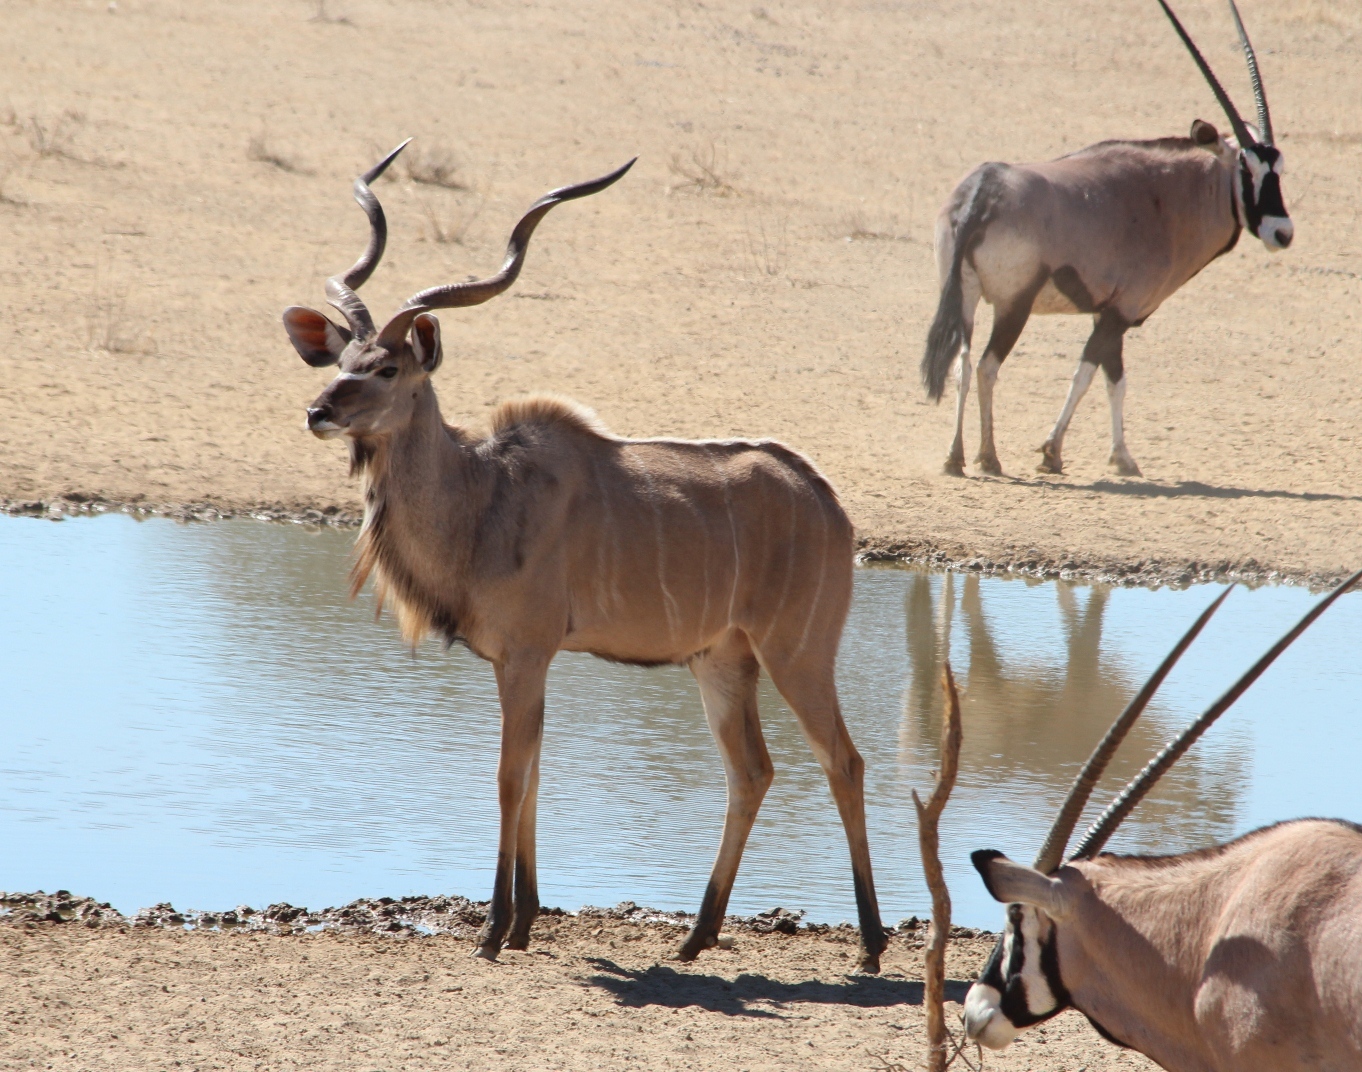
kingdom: Animalia
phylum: Chordata
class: Mammalia
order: Artiodactyla
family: Bovidae
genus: Tragelaphus
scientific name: Tragelaphus strepsiceros
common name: Greater kudu
